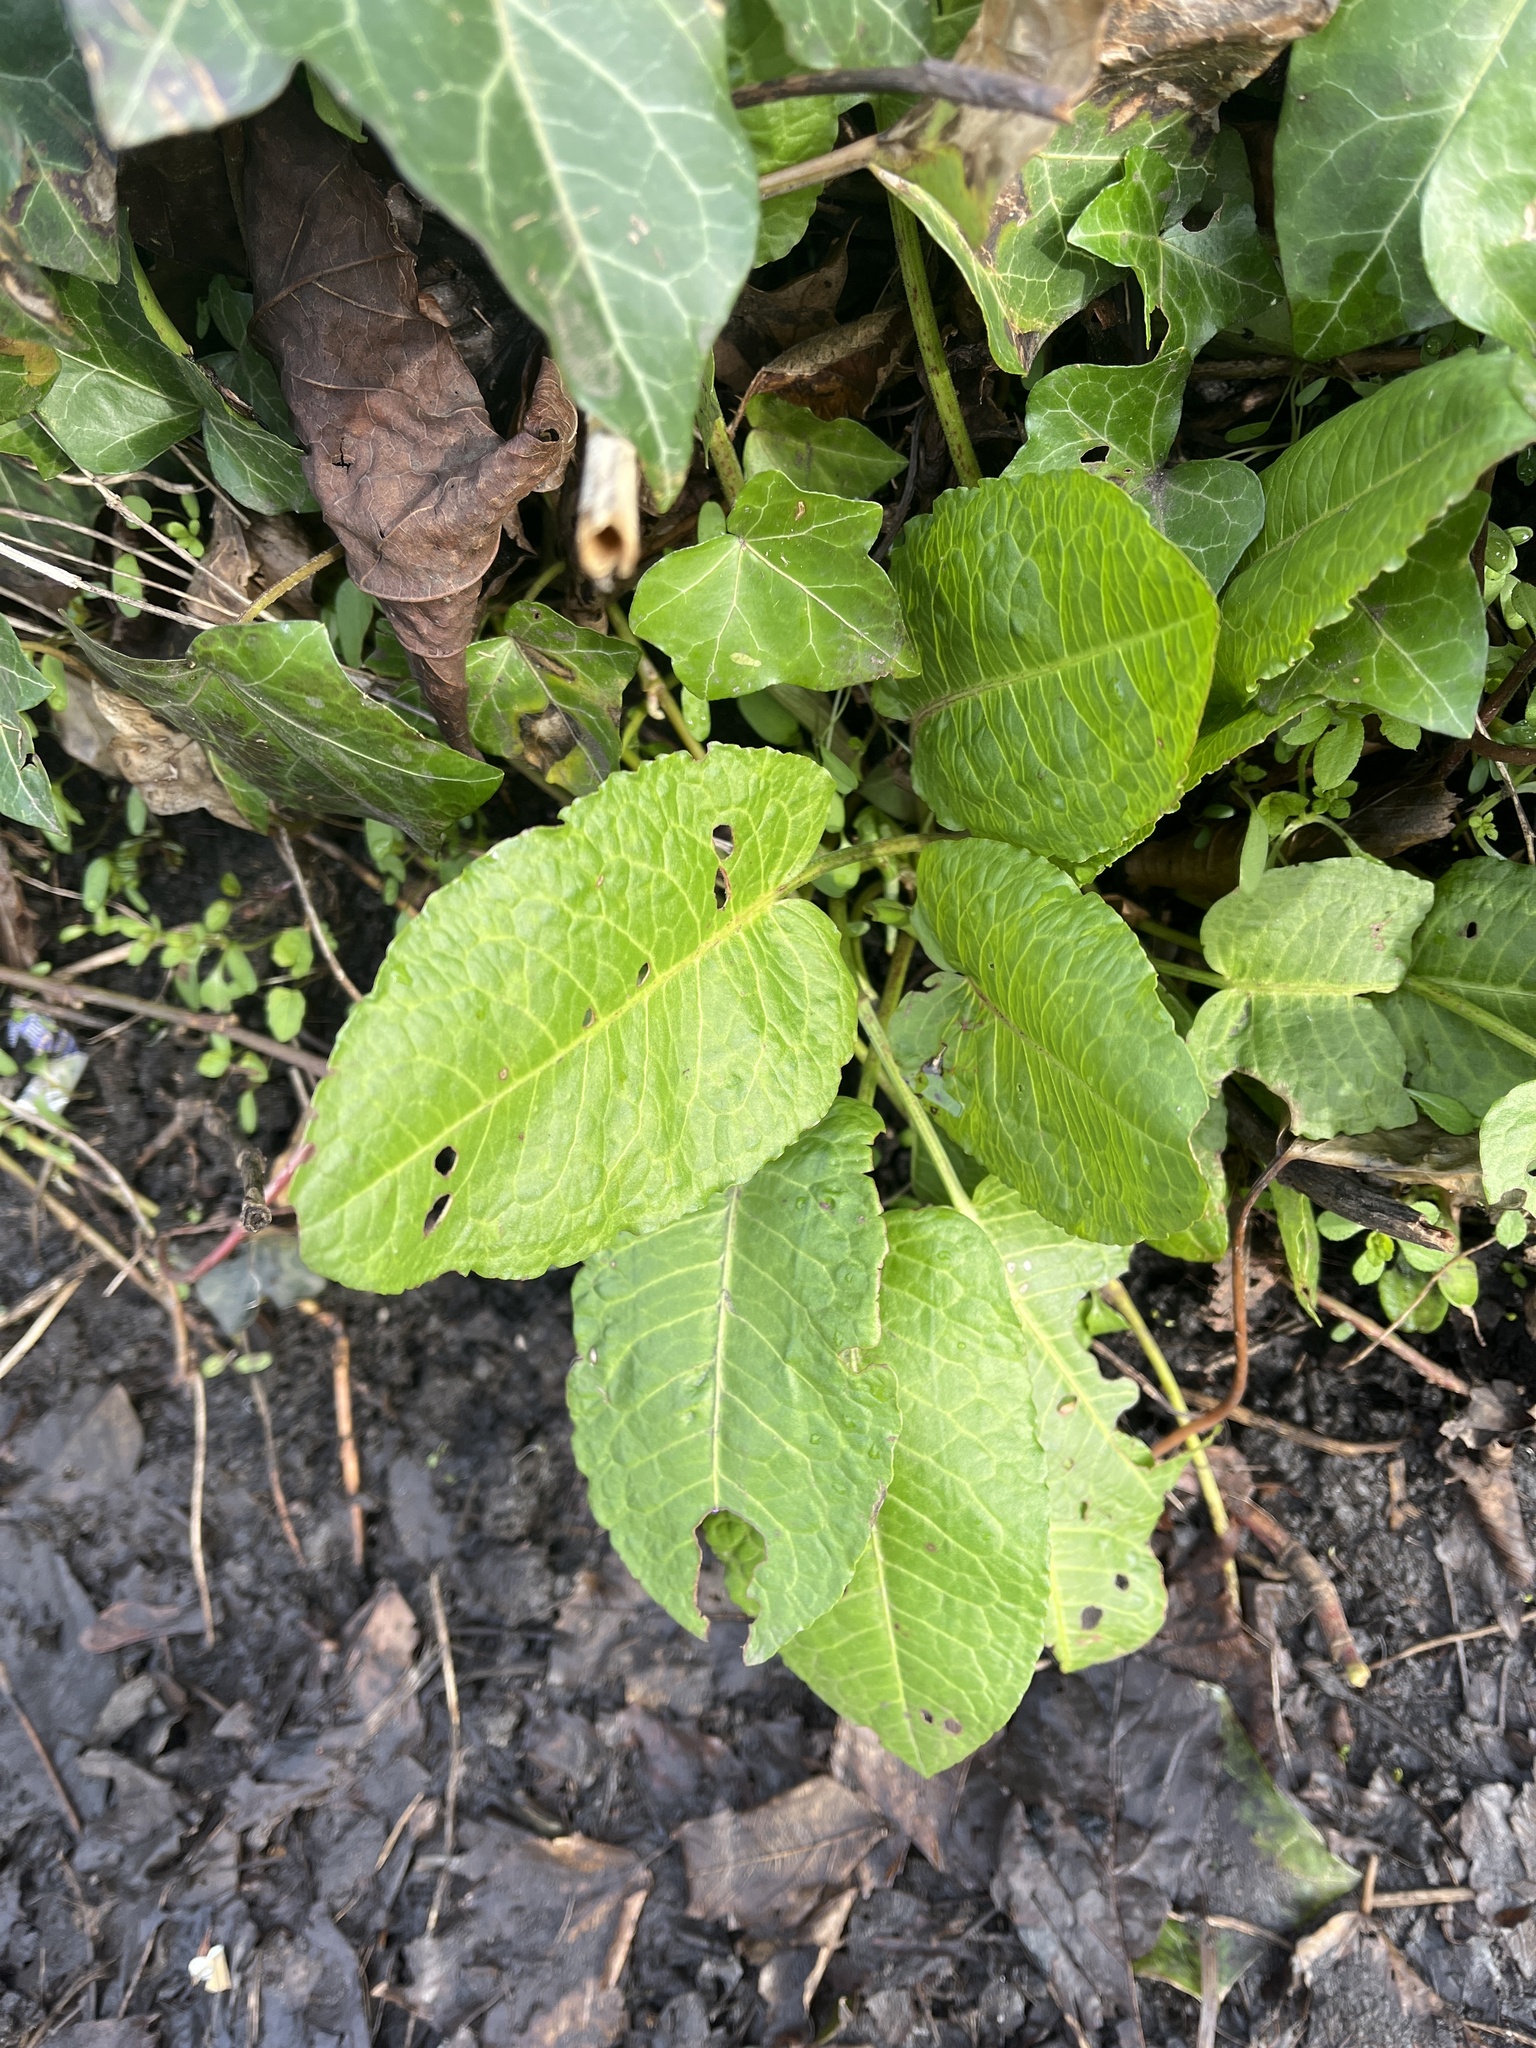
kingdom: Plantae
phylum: Tracheophyta
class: Magnoliopsida
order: Caryophyllales
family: Polygonaceae
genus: Rumex
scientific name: Rumex obtusifolius
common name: Bitter dock
